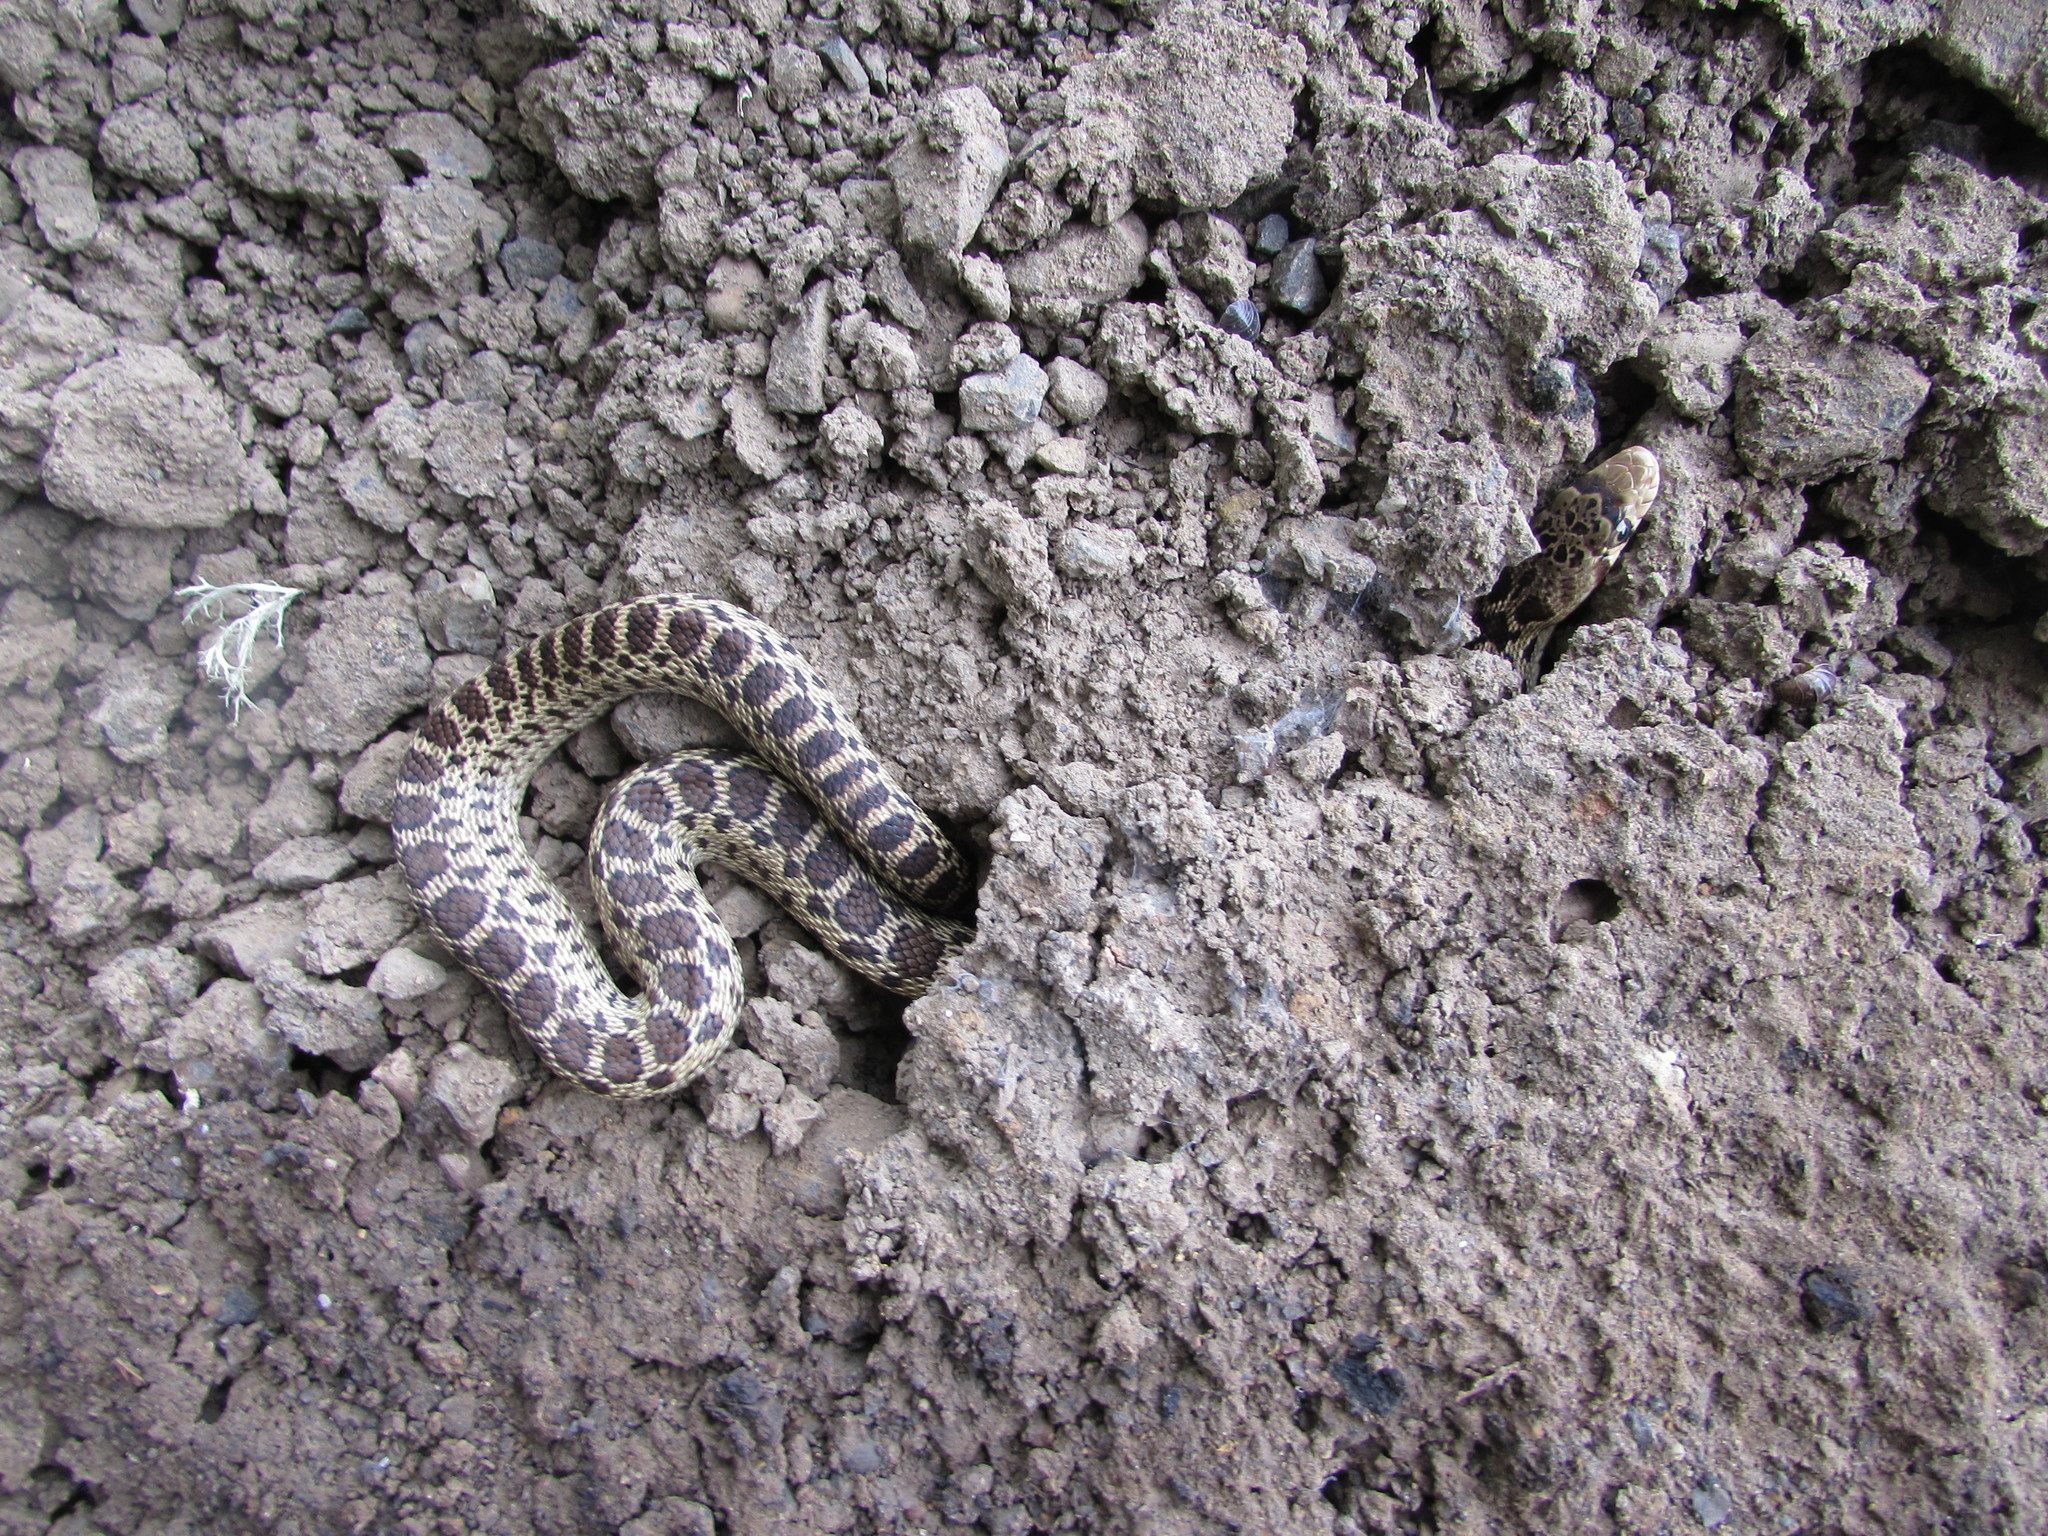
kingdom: Animalia
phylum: Chordata
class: Squamata
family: Colubridae
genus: Pituophis
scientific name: Pituophis catenifer
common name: Gopher snake
